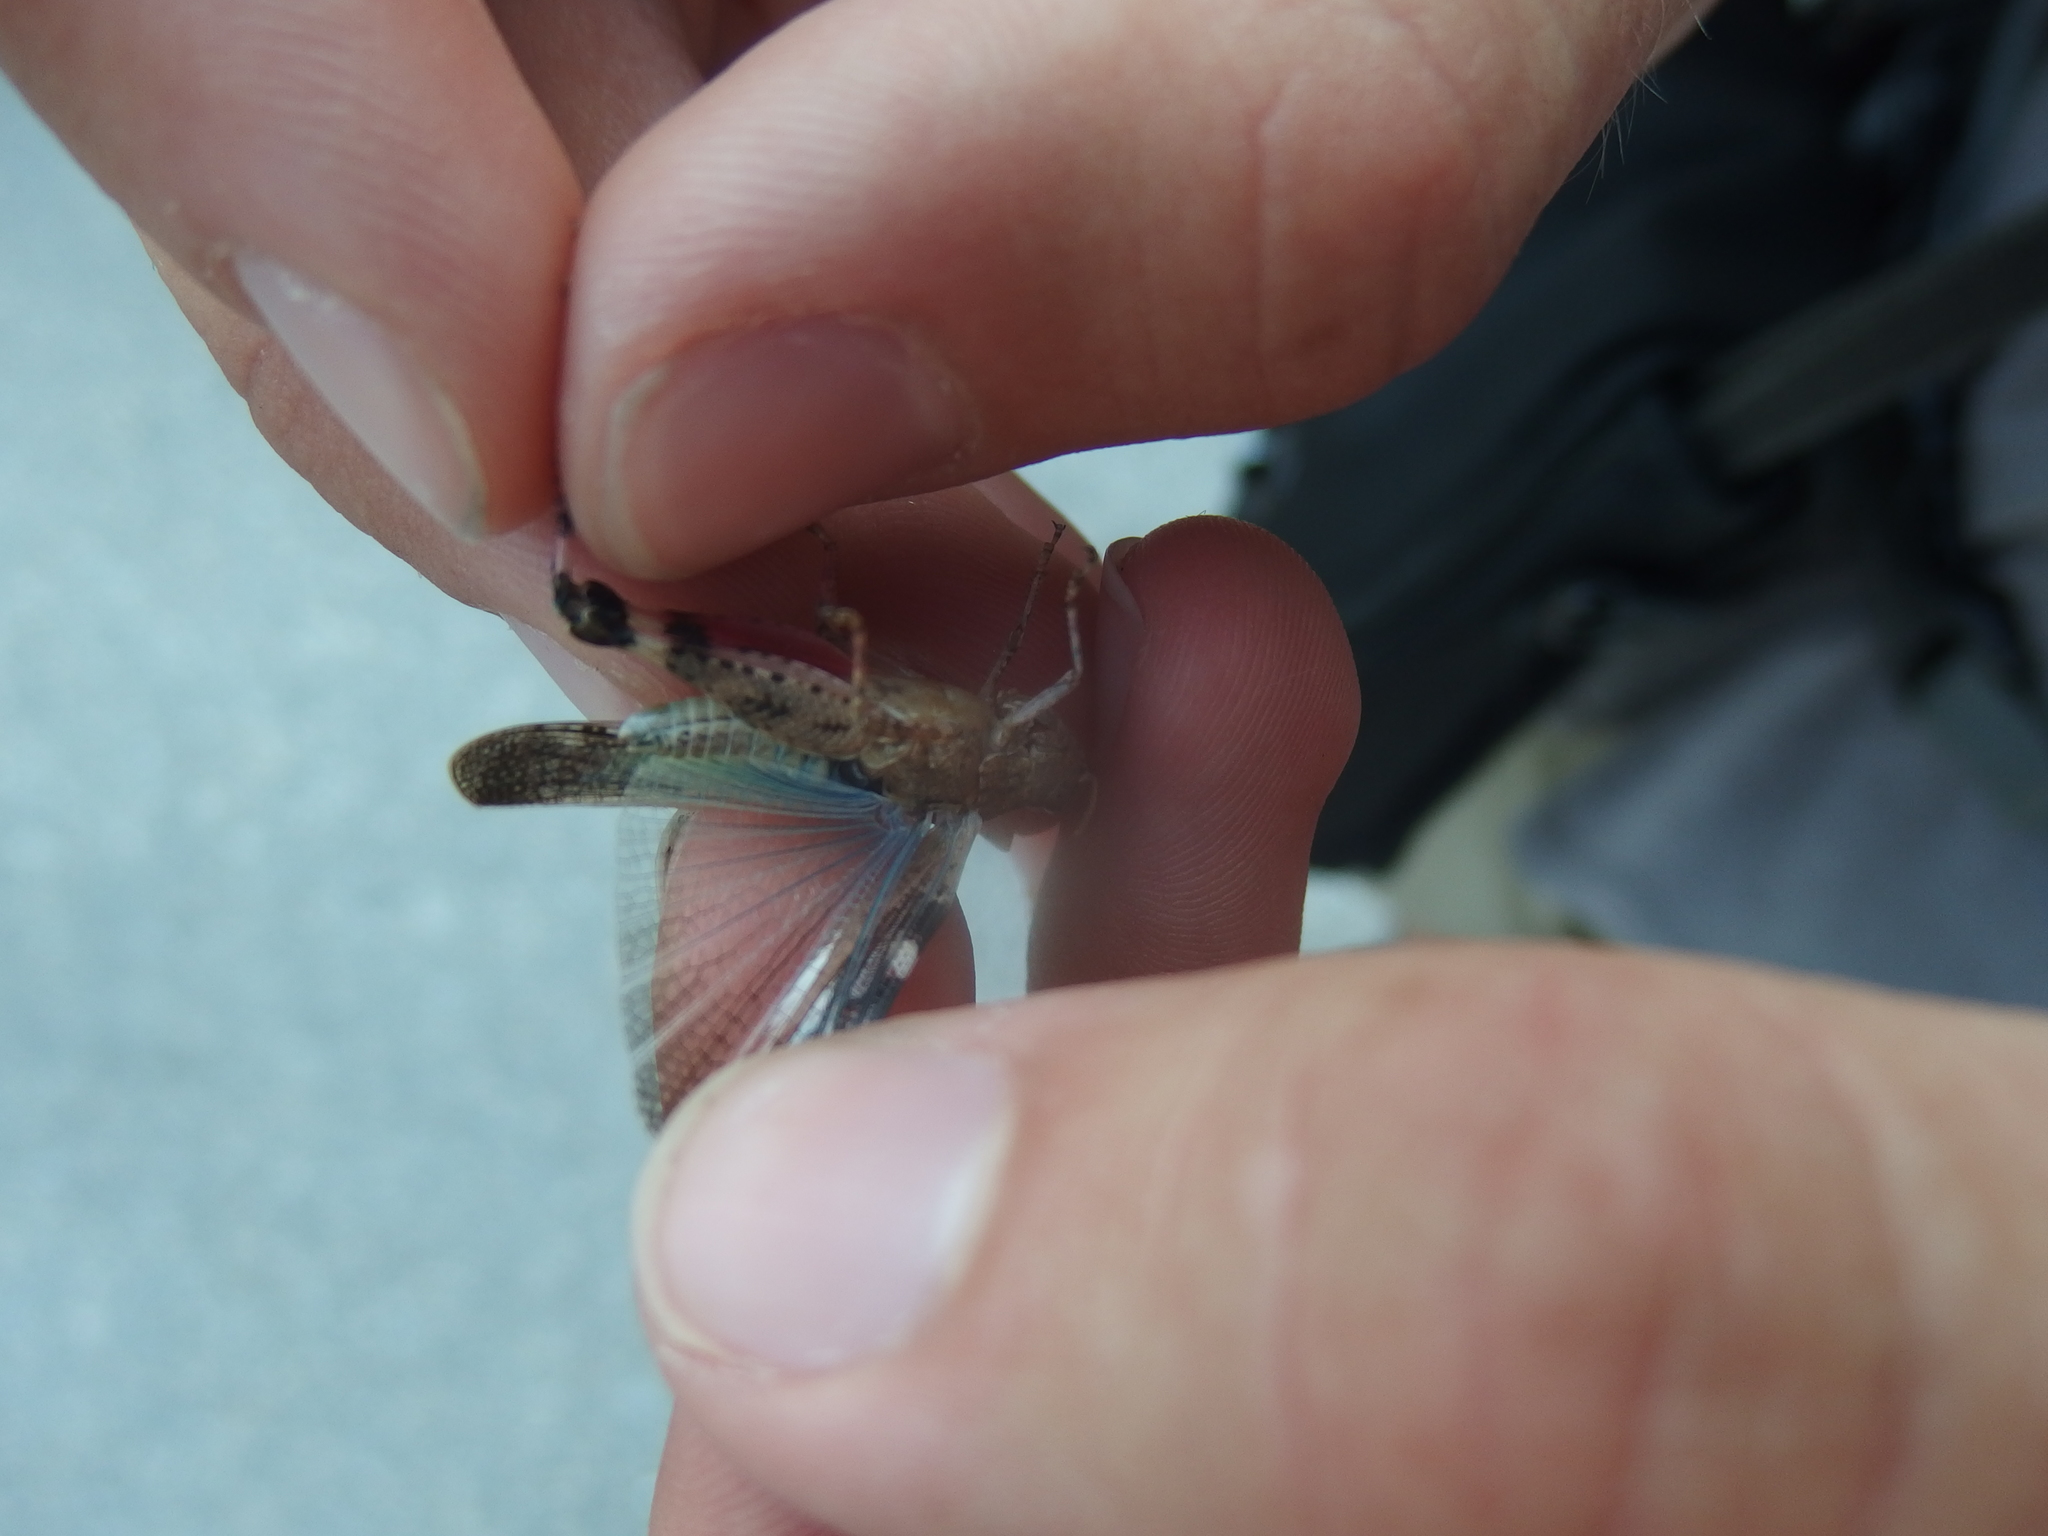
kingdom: Animalia
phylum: Arthropoda
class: Insecta
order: Orthoptera
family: Acrididae
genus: Aiolopus
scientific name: Aiolopus strepens
